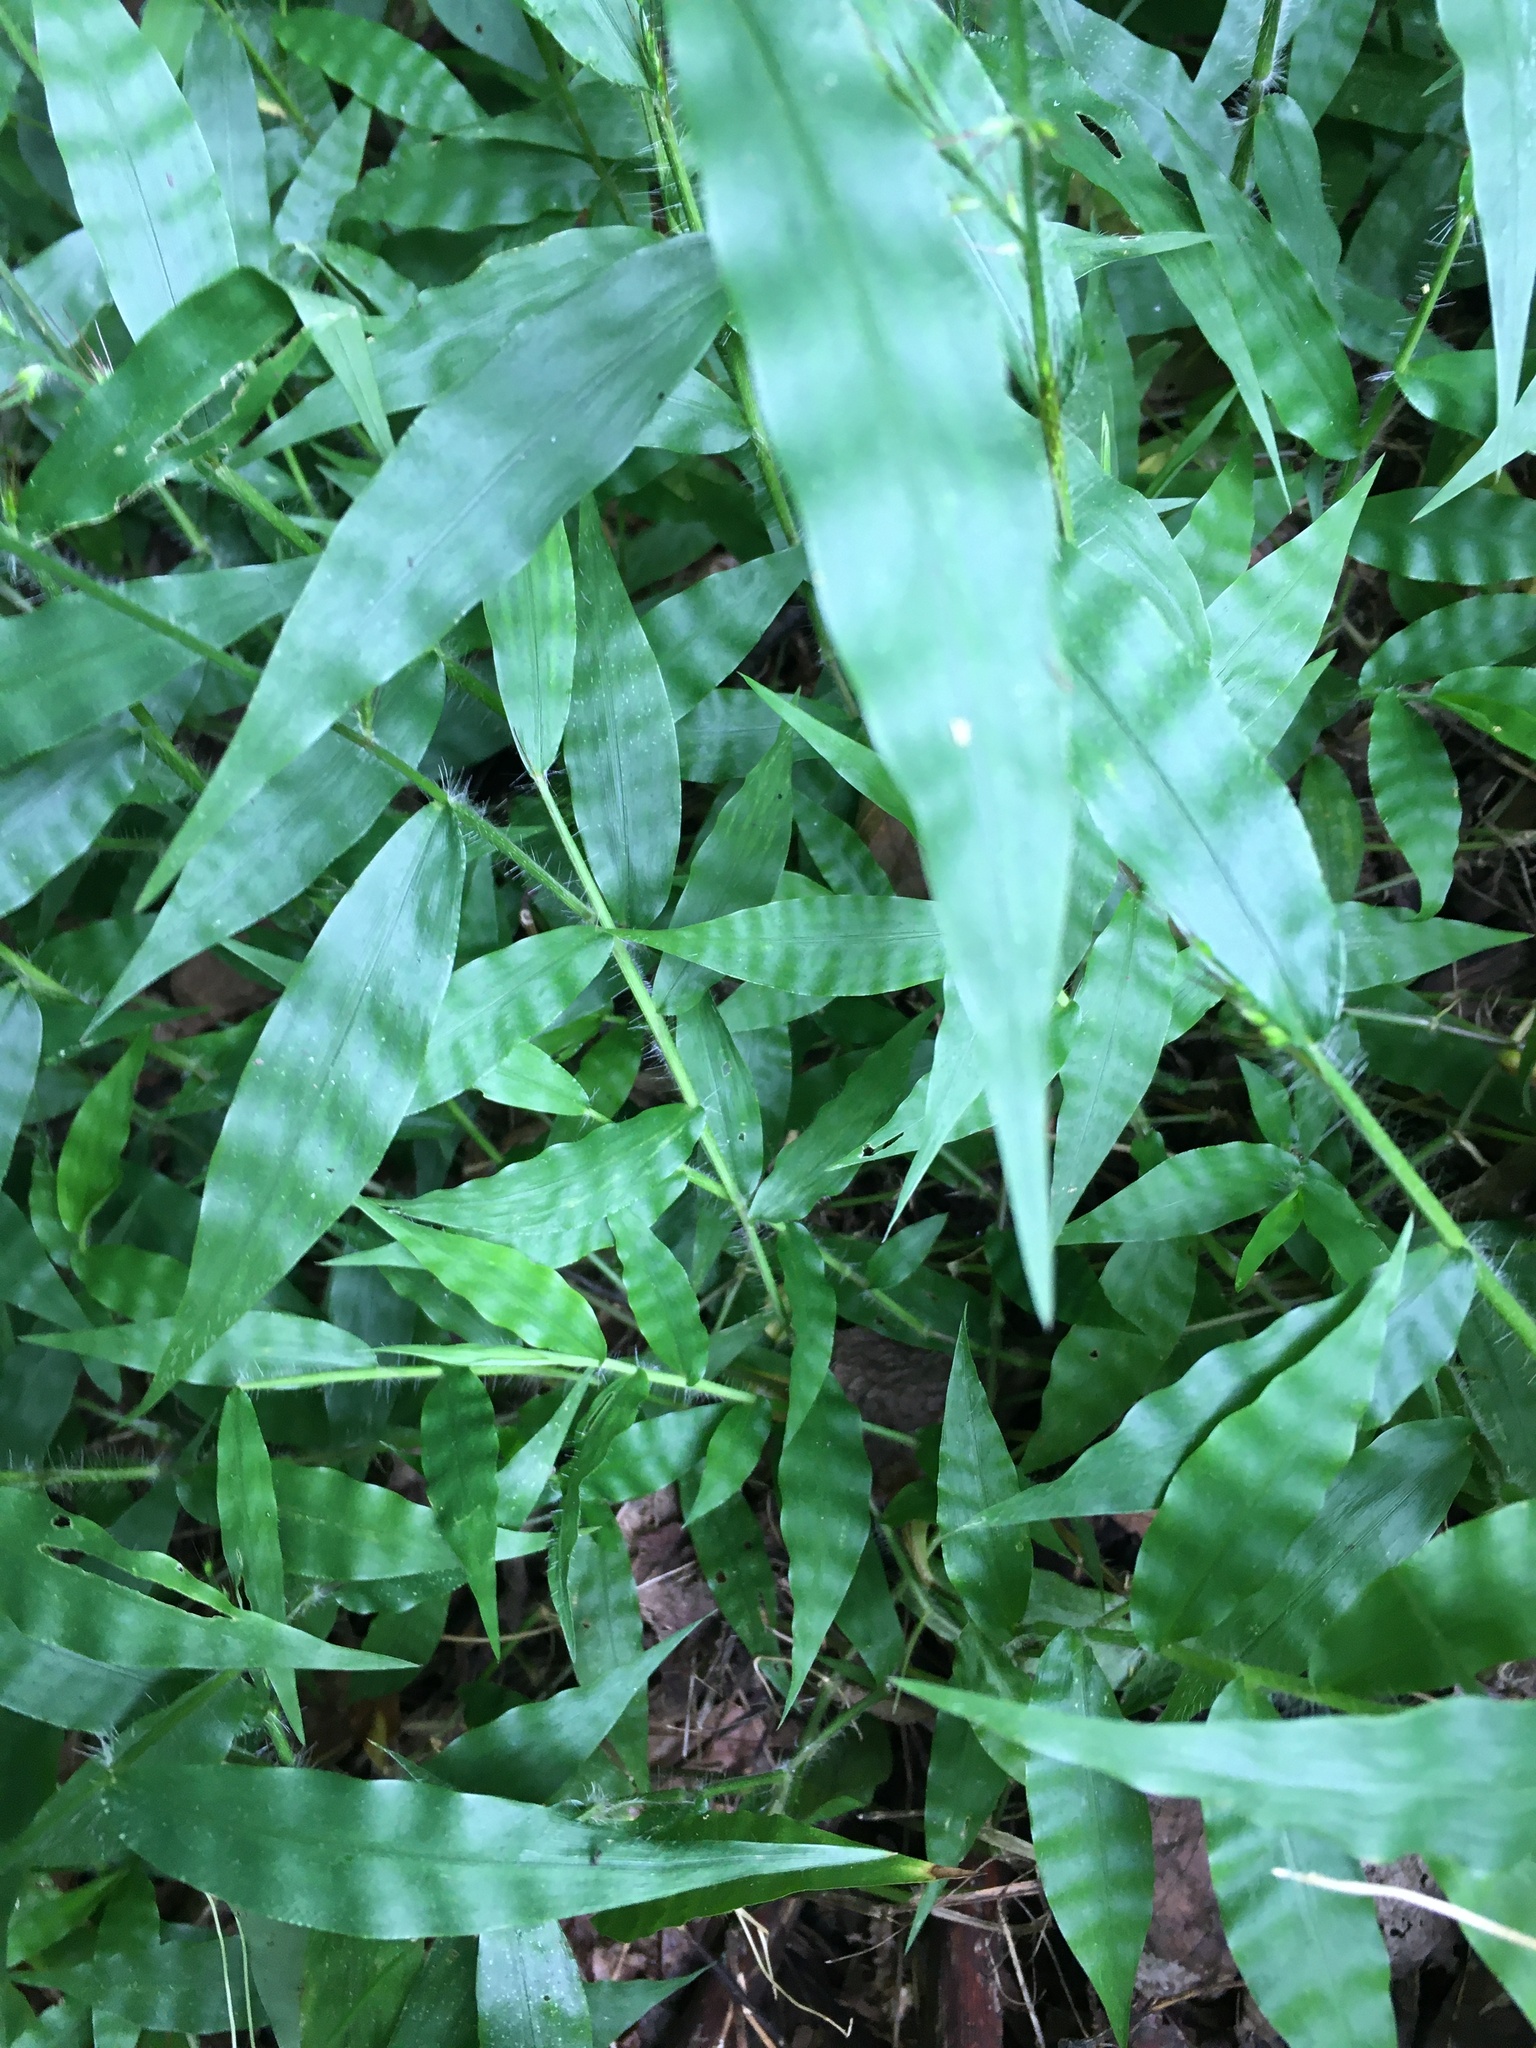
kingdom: Plantae
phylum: Tracheophyta
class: Liliopsida
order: Poales
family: Poaceae
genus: Oplismenus
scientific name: Oplismenus undulatifolius
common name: Wavyleaf basketgrass
